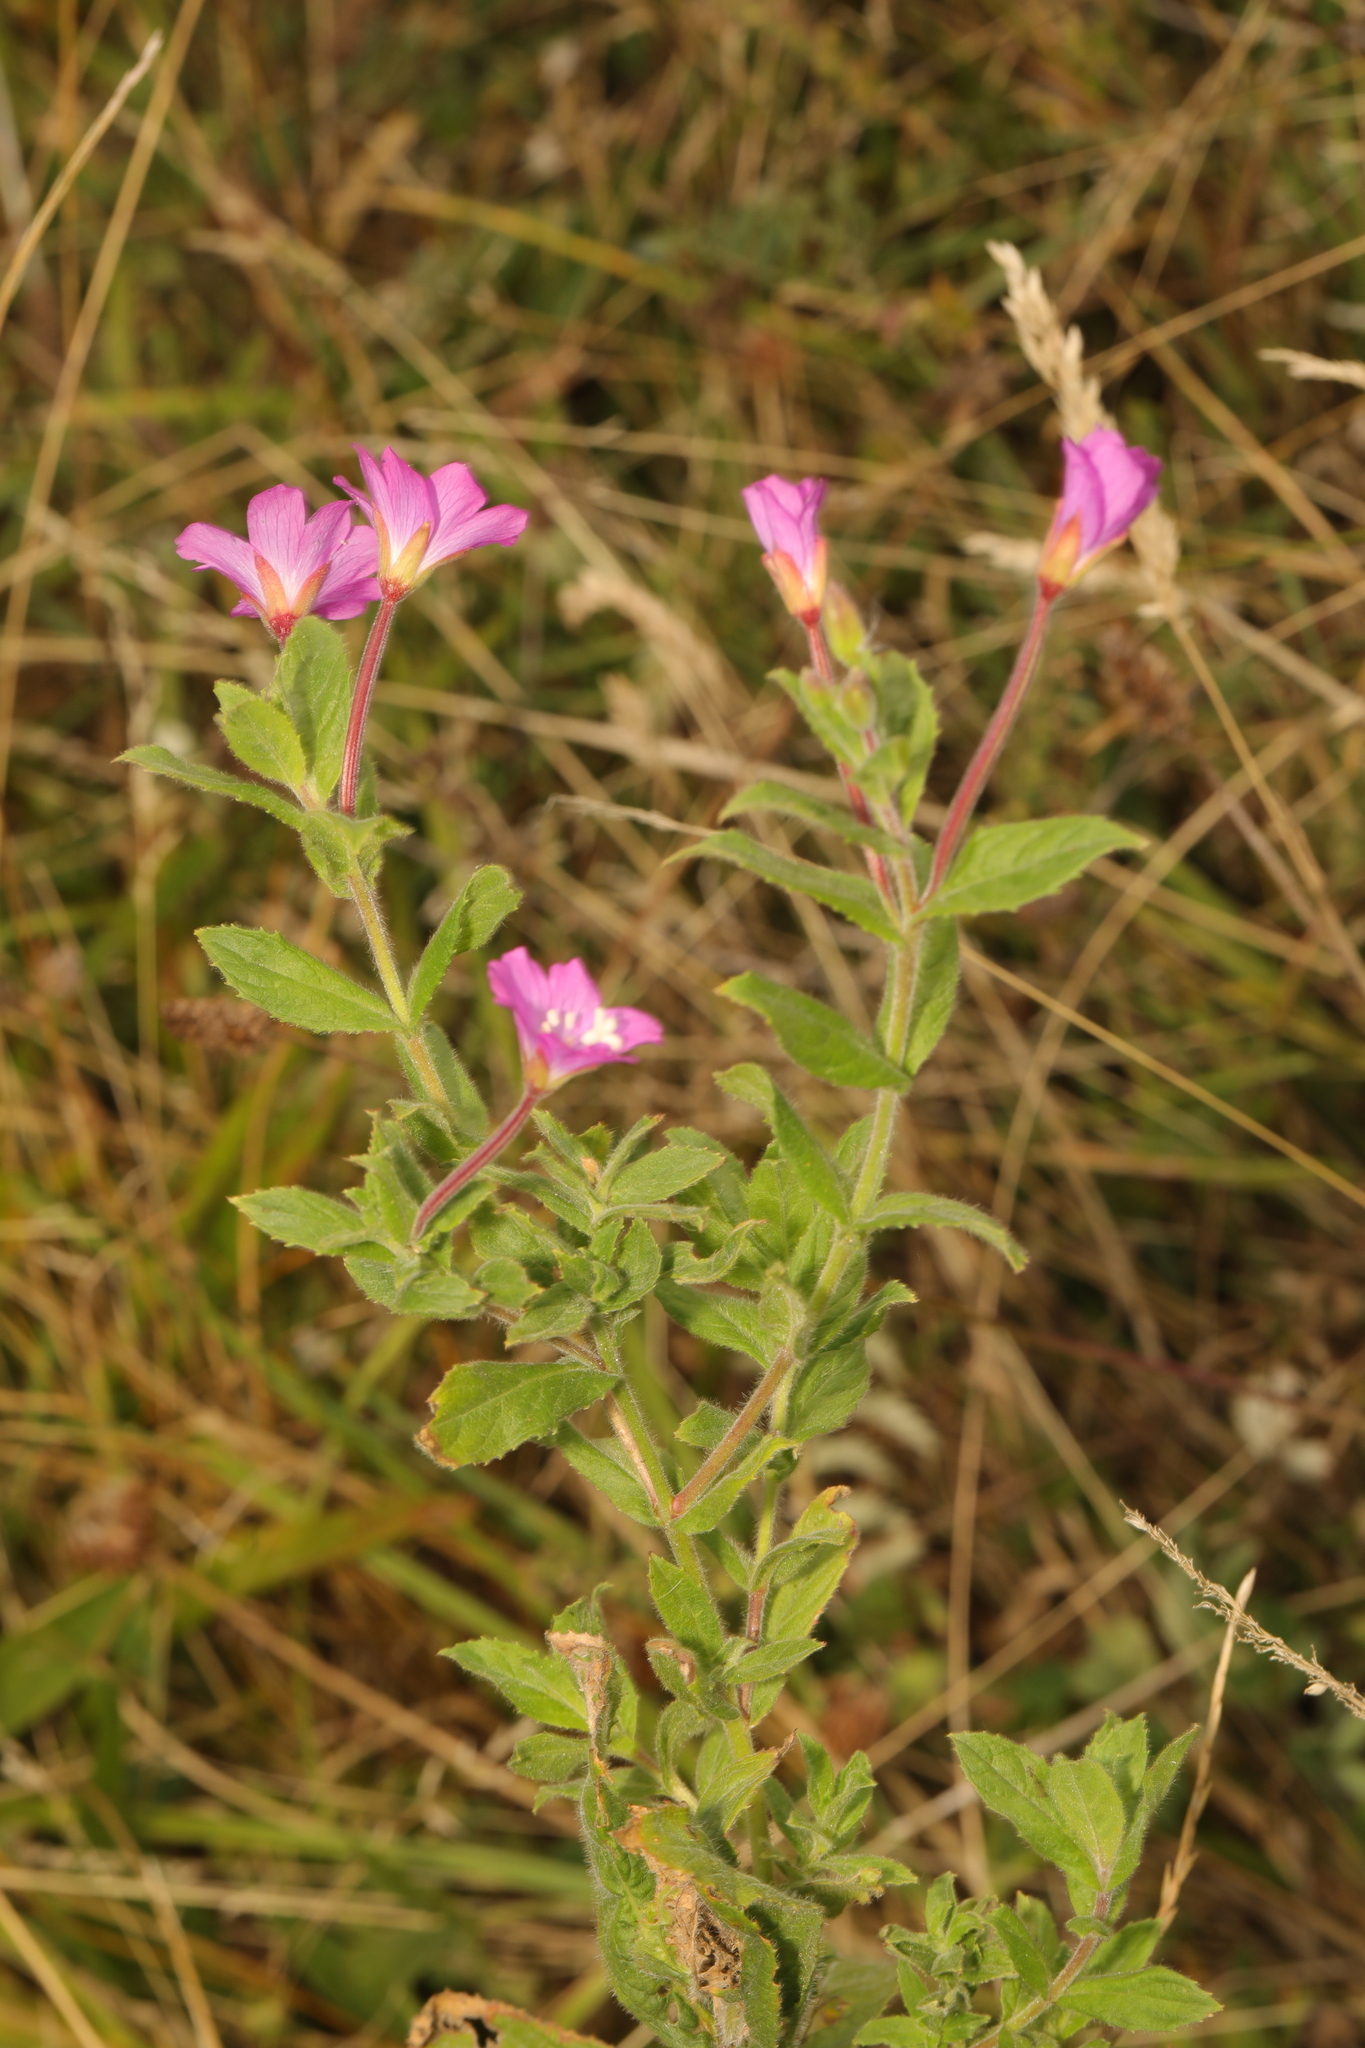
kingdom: Plantae
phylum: Tracheophyta
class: Magnoliopsida
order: Myrtales
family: Onagraceae
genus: Epilobium
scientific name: Epilobium hirsutum
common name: Great willowherb
